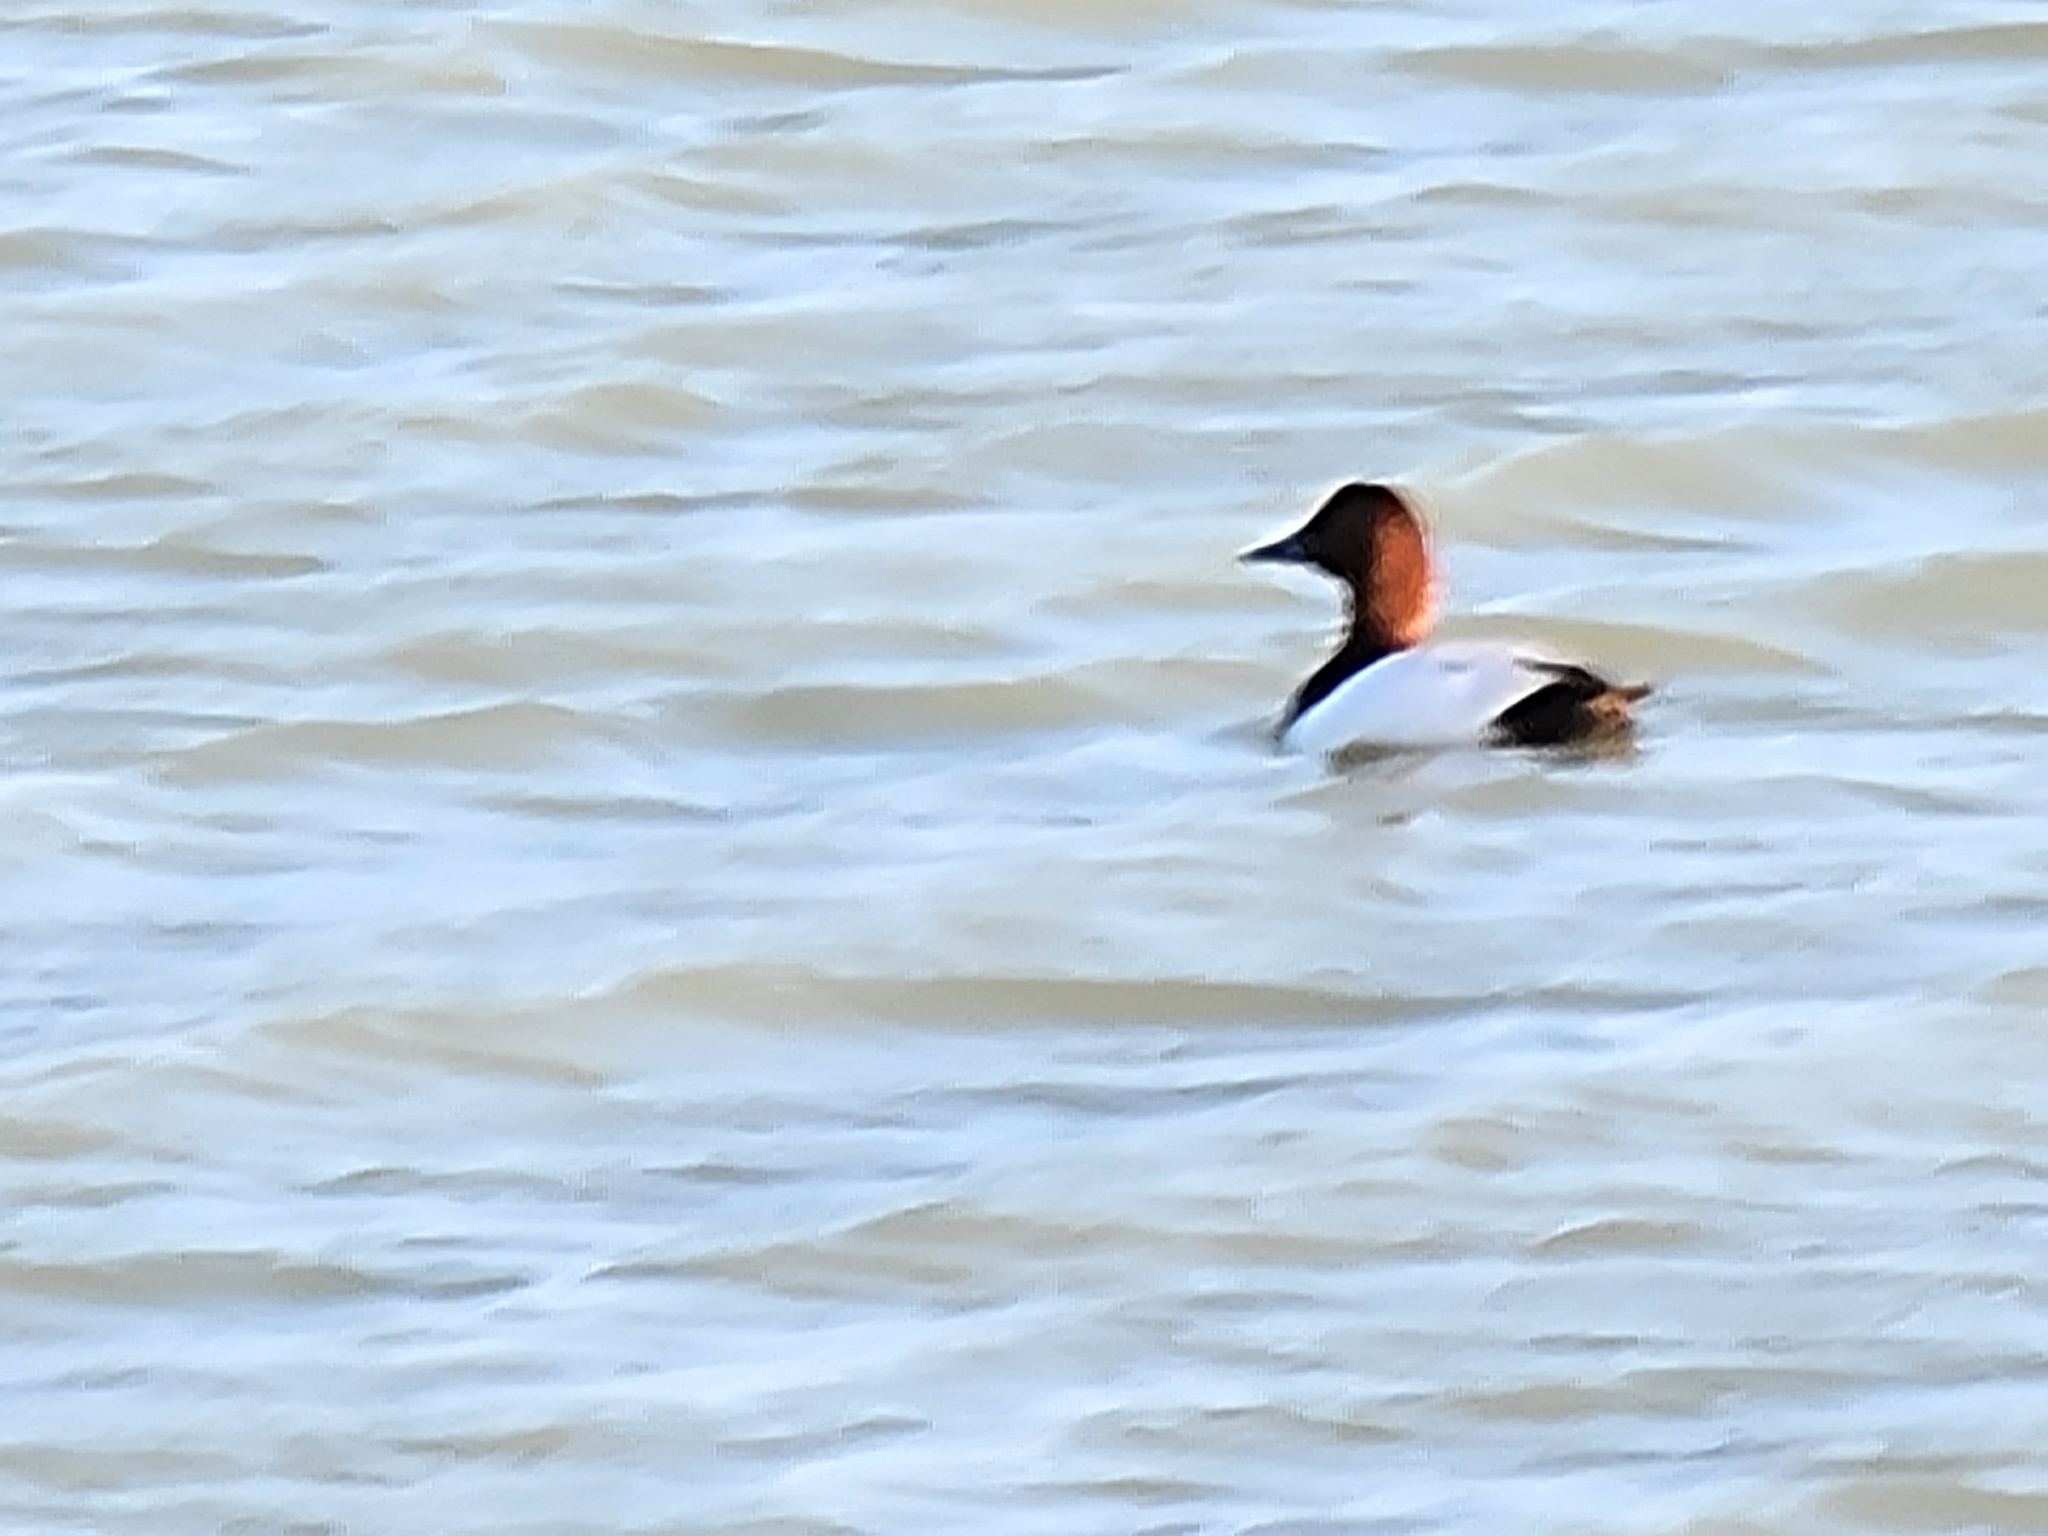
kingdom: Animalia
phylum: Chordata
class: Aves
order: Anseriformes
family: Anatidae
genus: Aythya
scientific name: Aythya valisineria
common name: Canvasback
